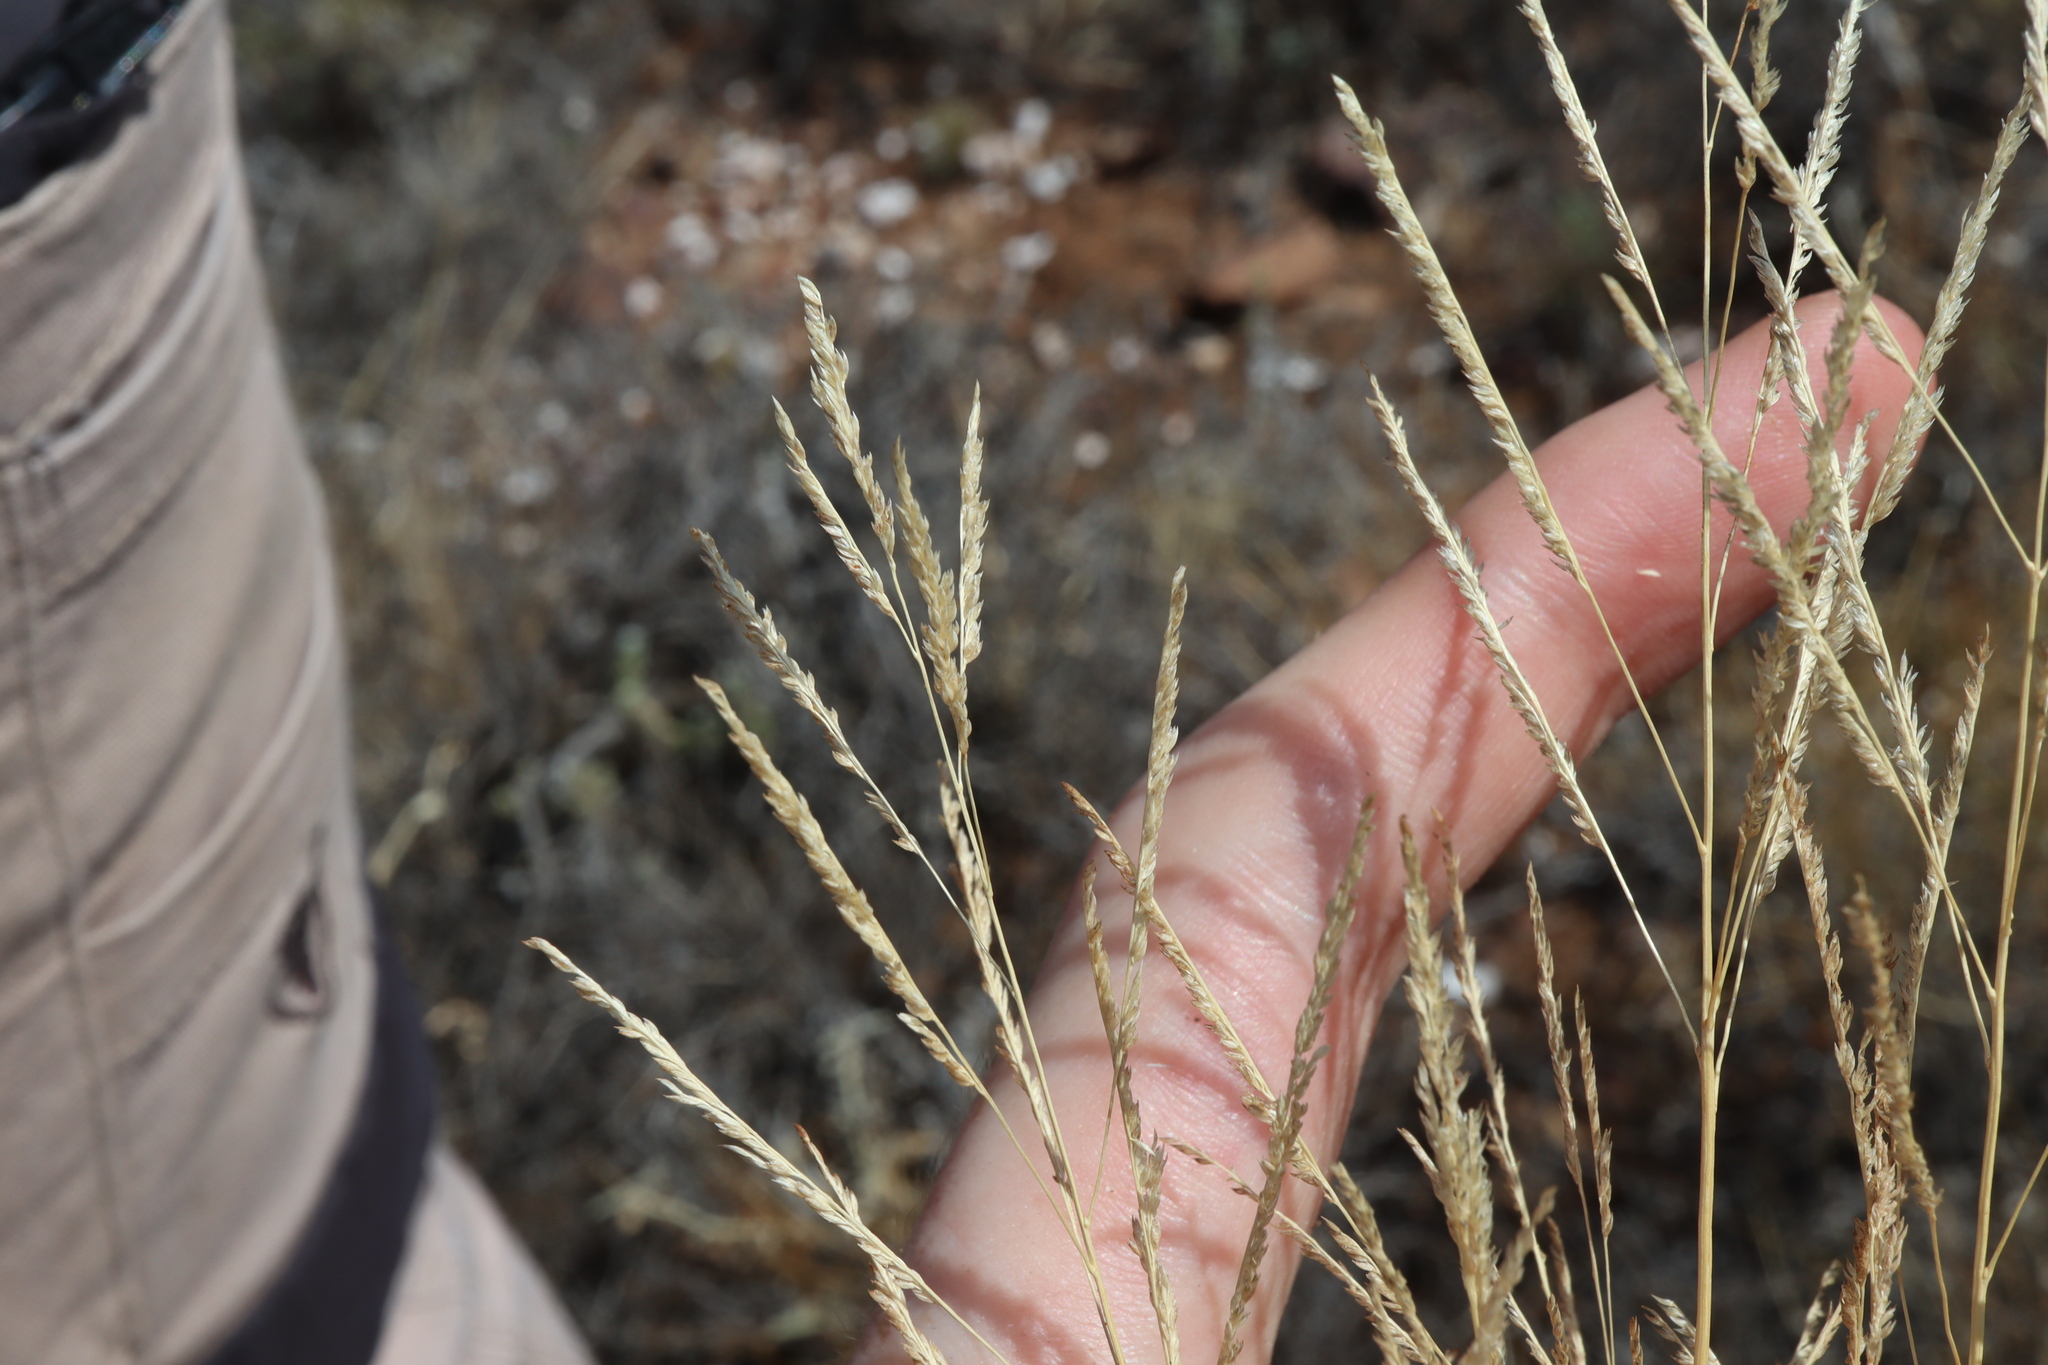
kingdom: Plantae
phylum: Tracheophyta
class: Liliopsida
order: Poales
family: Poaceae
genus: Sporobolus
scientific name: Sporobolus actinocladus
